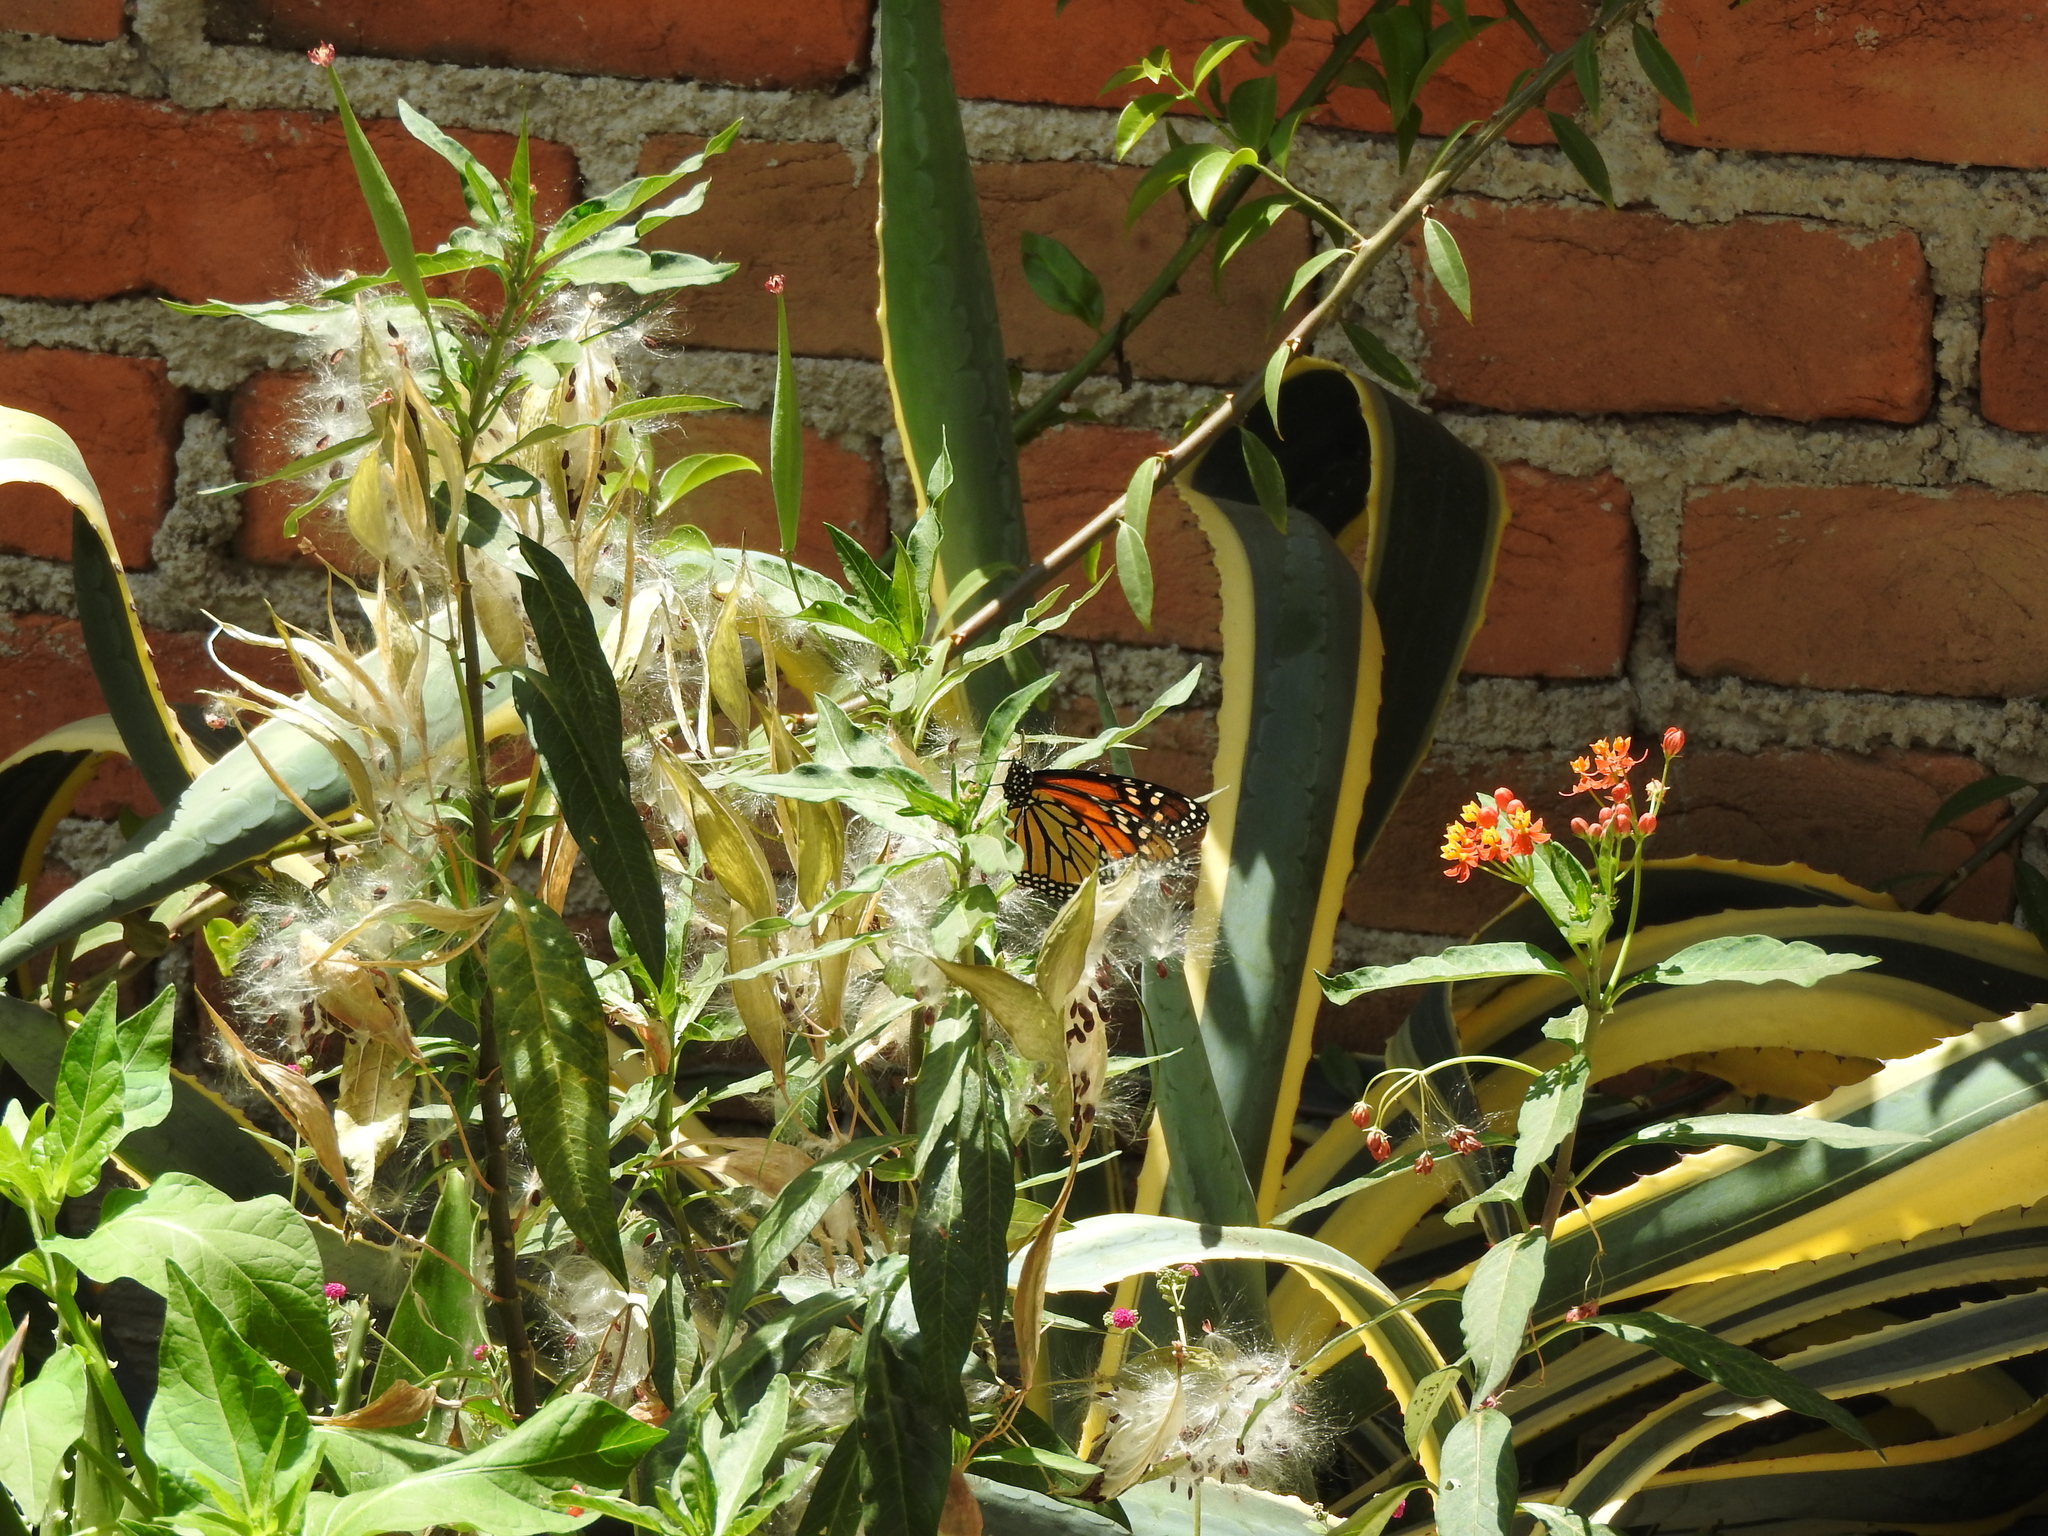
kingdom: Animalia
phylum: Arthropoda
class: Insecta
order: Lepidoptera
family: Nymphalidae
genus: Danaus
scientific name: Danaus plexippus
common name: Monarch
